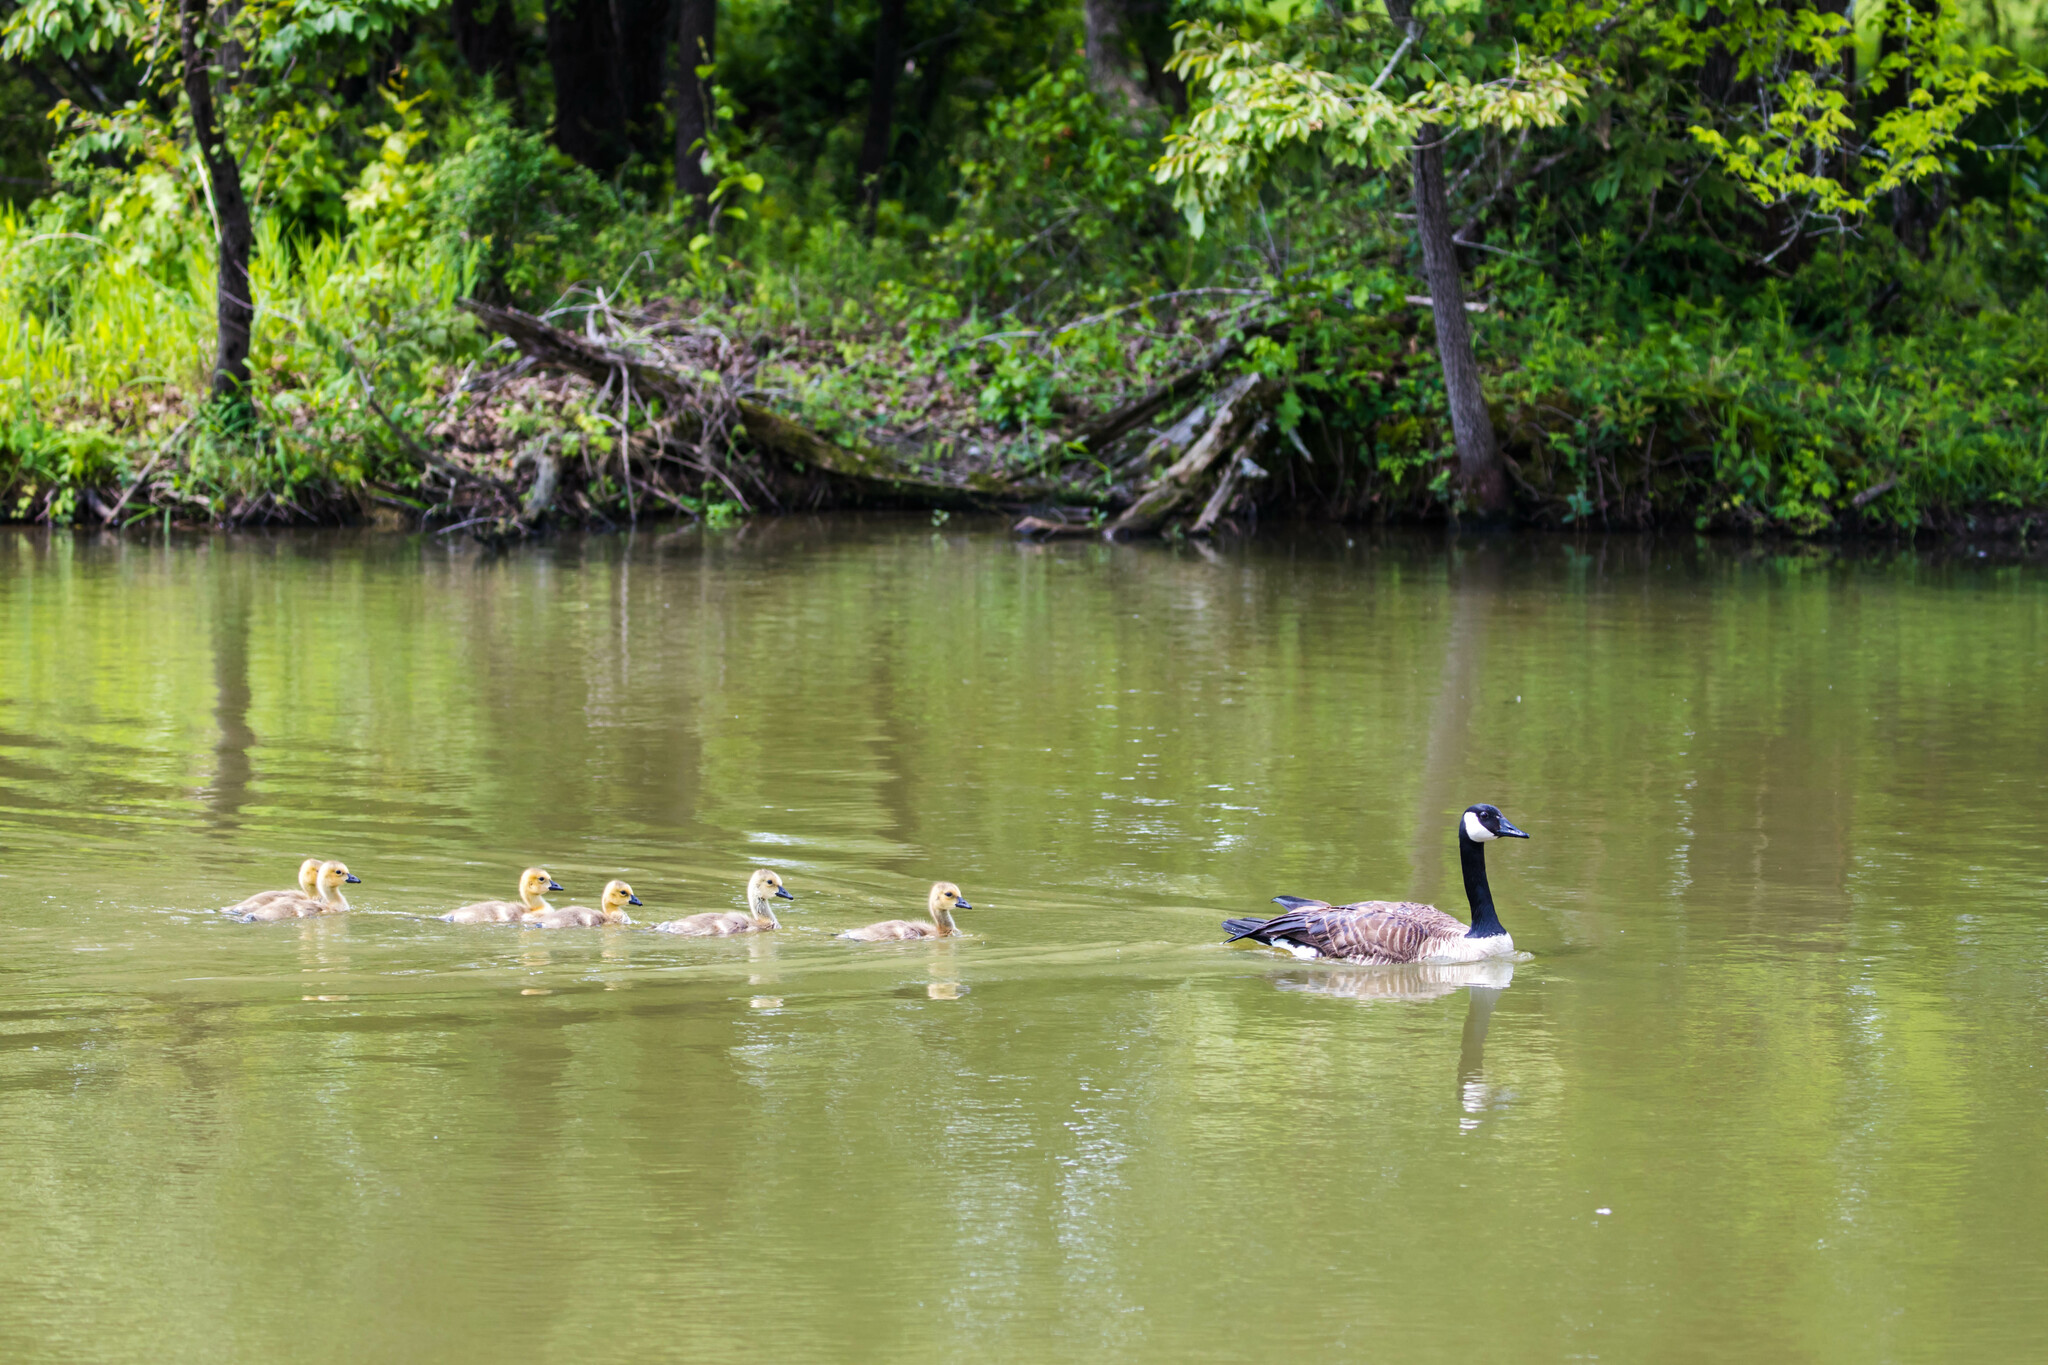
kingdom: Animalia
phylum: Chordata
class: Aves
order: Anseriformes
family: Anatidae
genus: Branta
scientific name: Branta canadensis
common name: Canada goose
